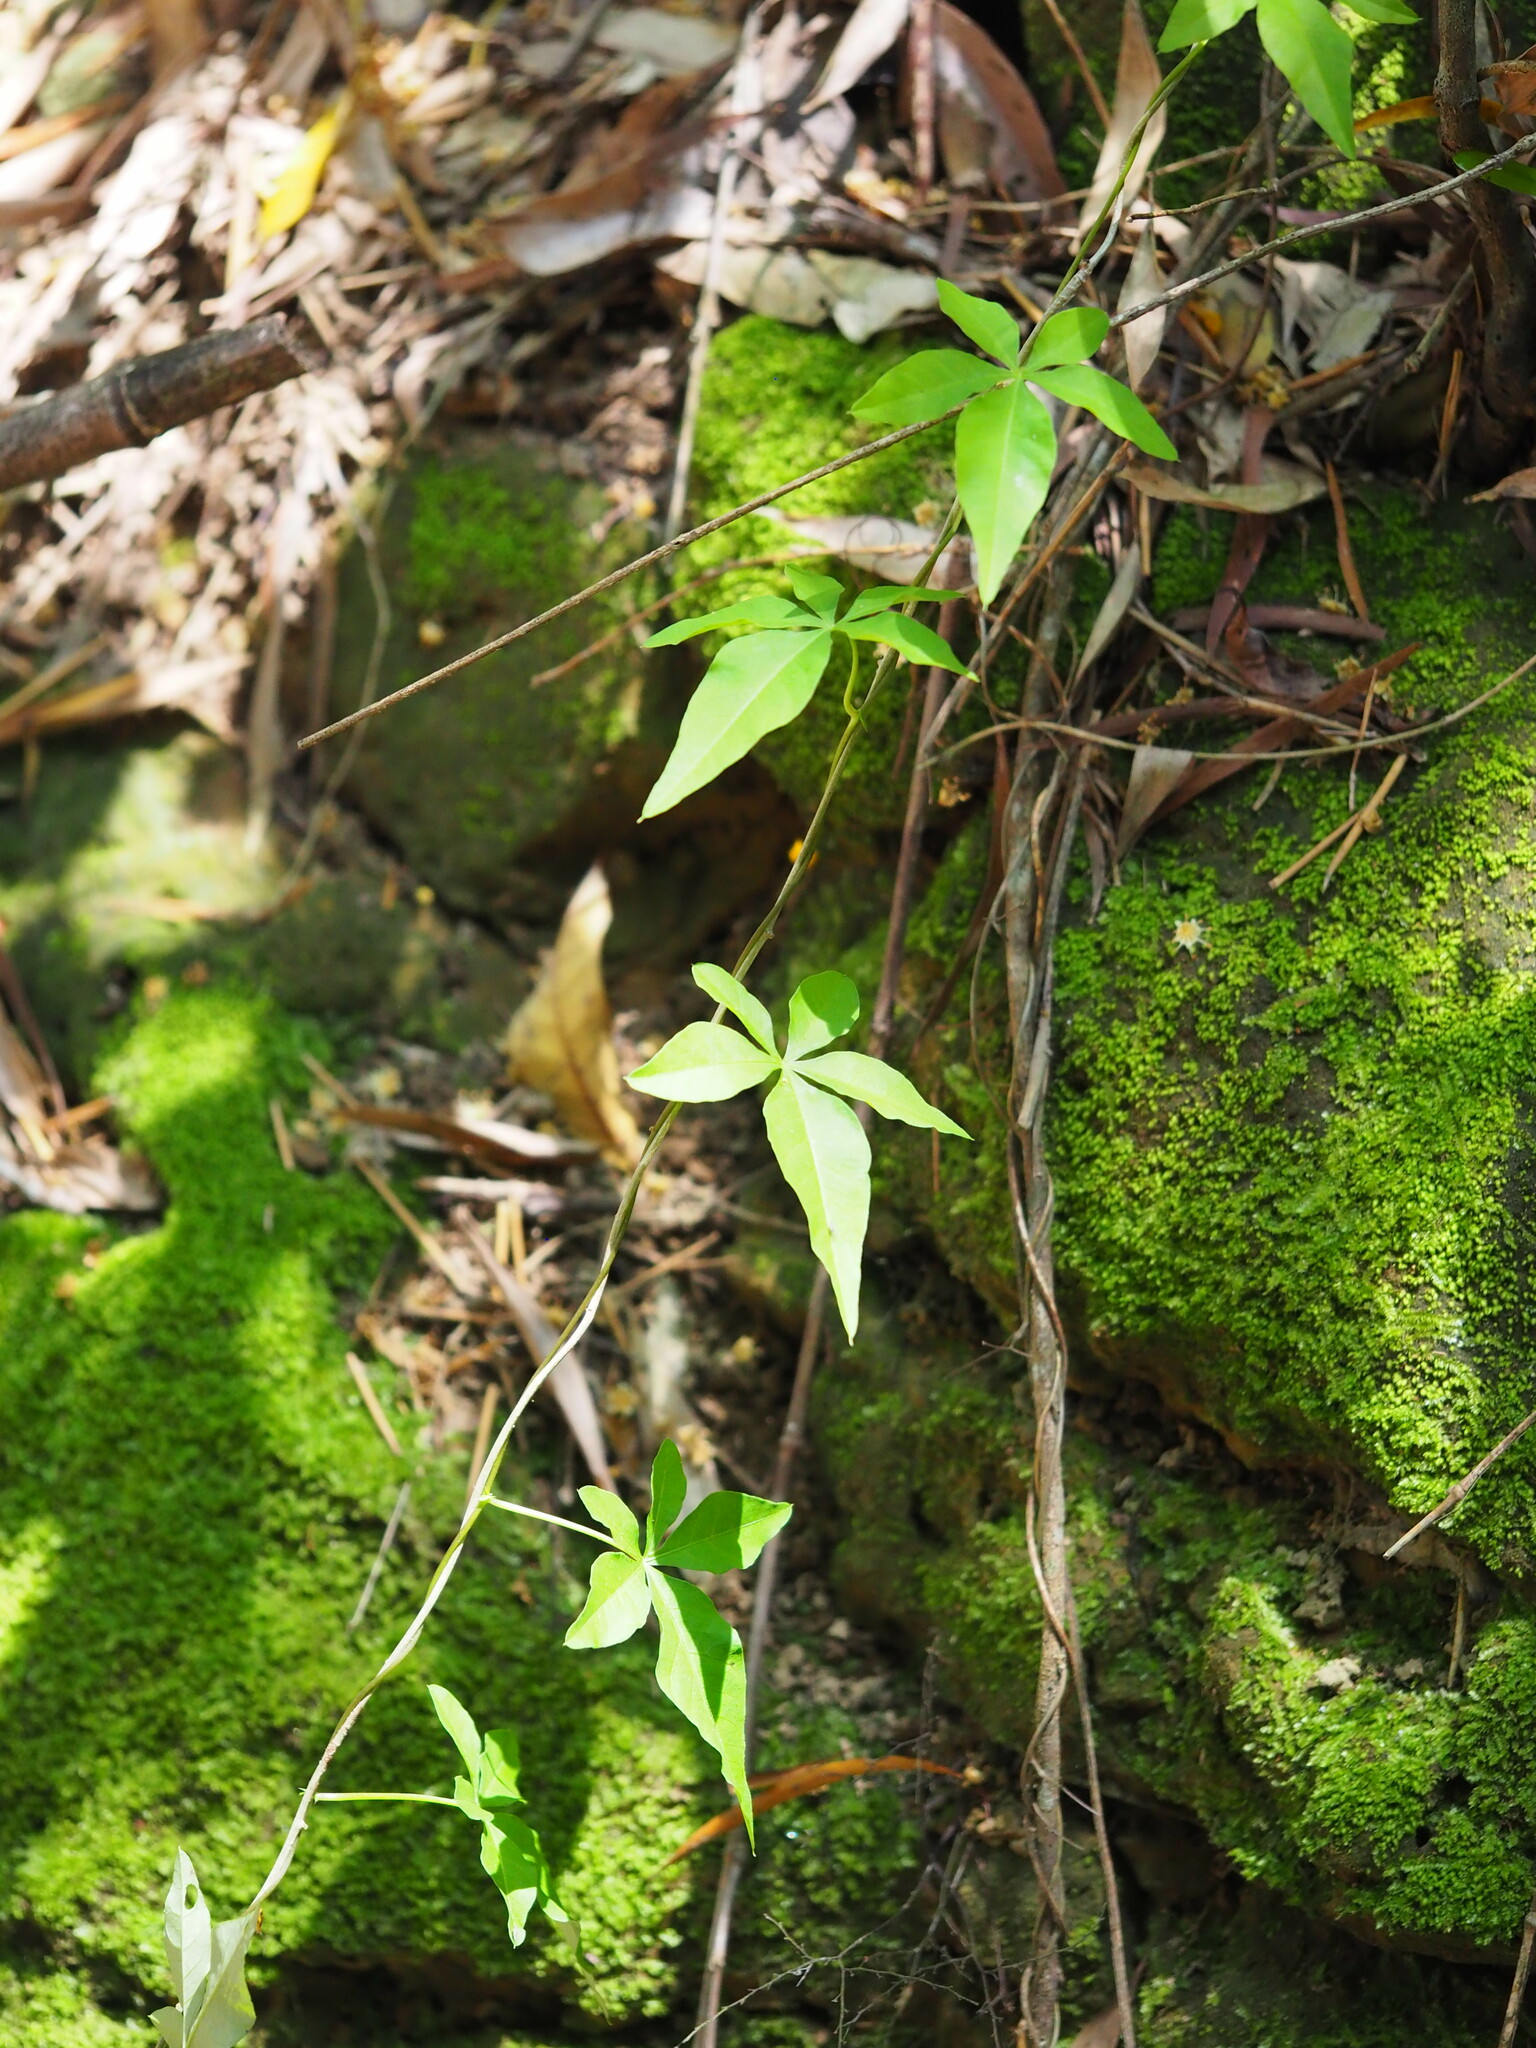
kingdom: Plantae
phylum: Tracheophyta
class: Magnoliopsida
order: Solanales
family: Convolvulaceae
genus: Ipomoea
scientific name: Ipomoea cairica
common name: Mile a minute vine
